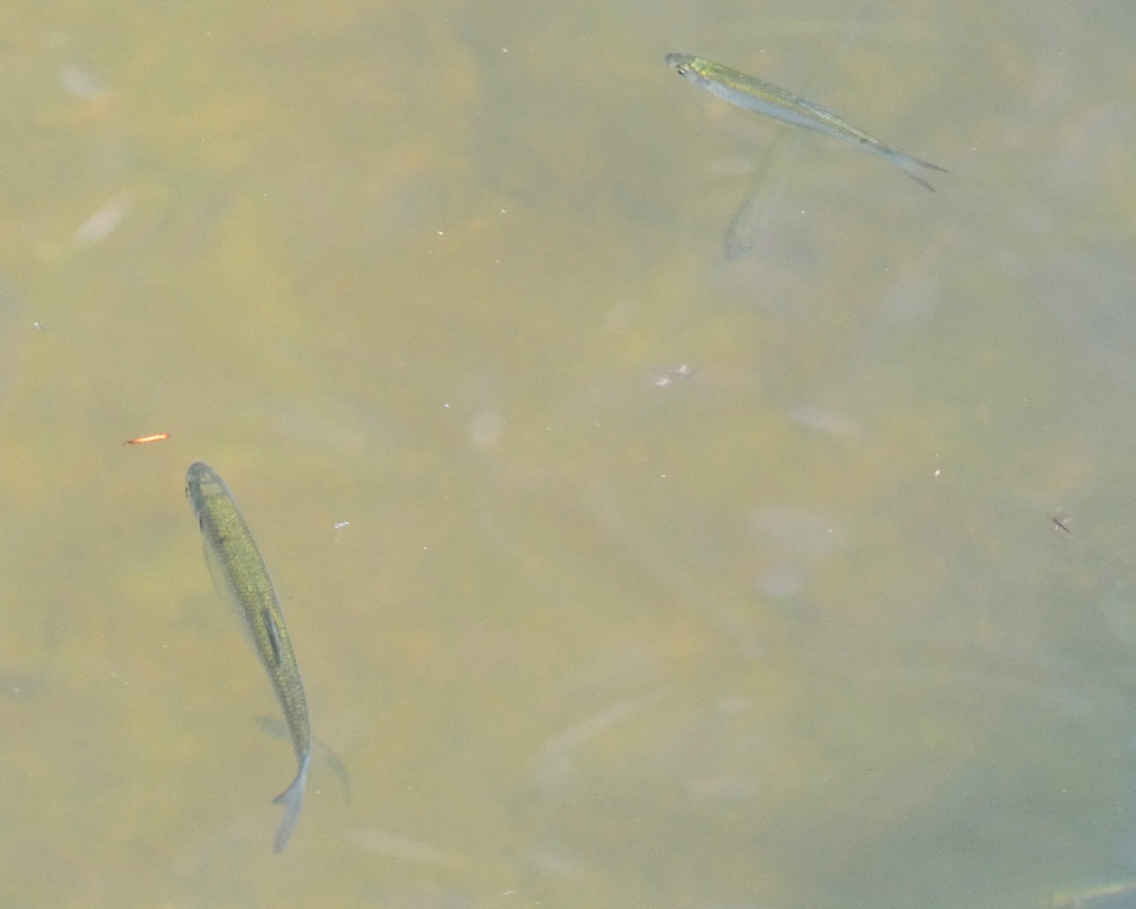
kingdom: Animalia
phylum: Chordata
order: Cypriniformes
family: Cyprinidae
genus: Alburnus
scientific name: Alburnus alburnus
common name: Bleak
